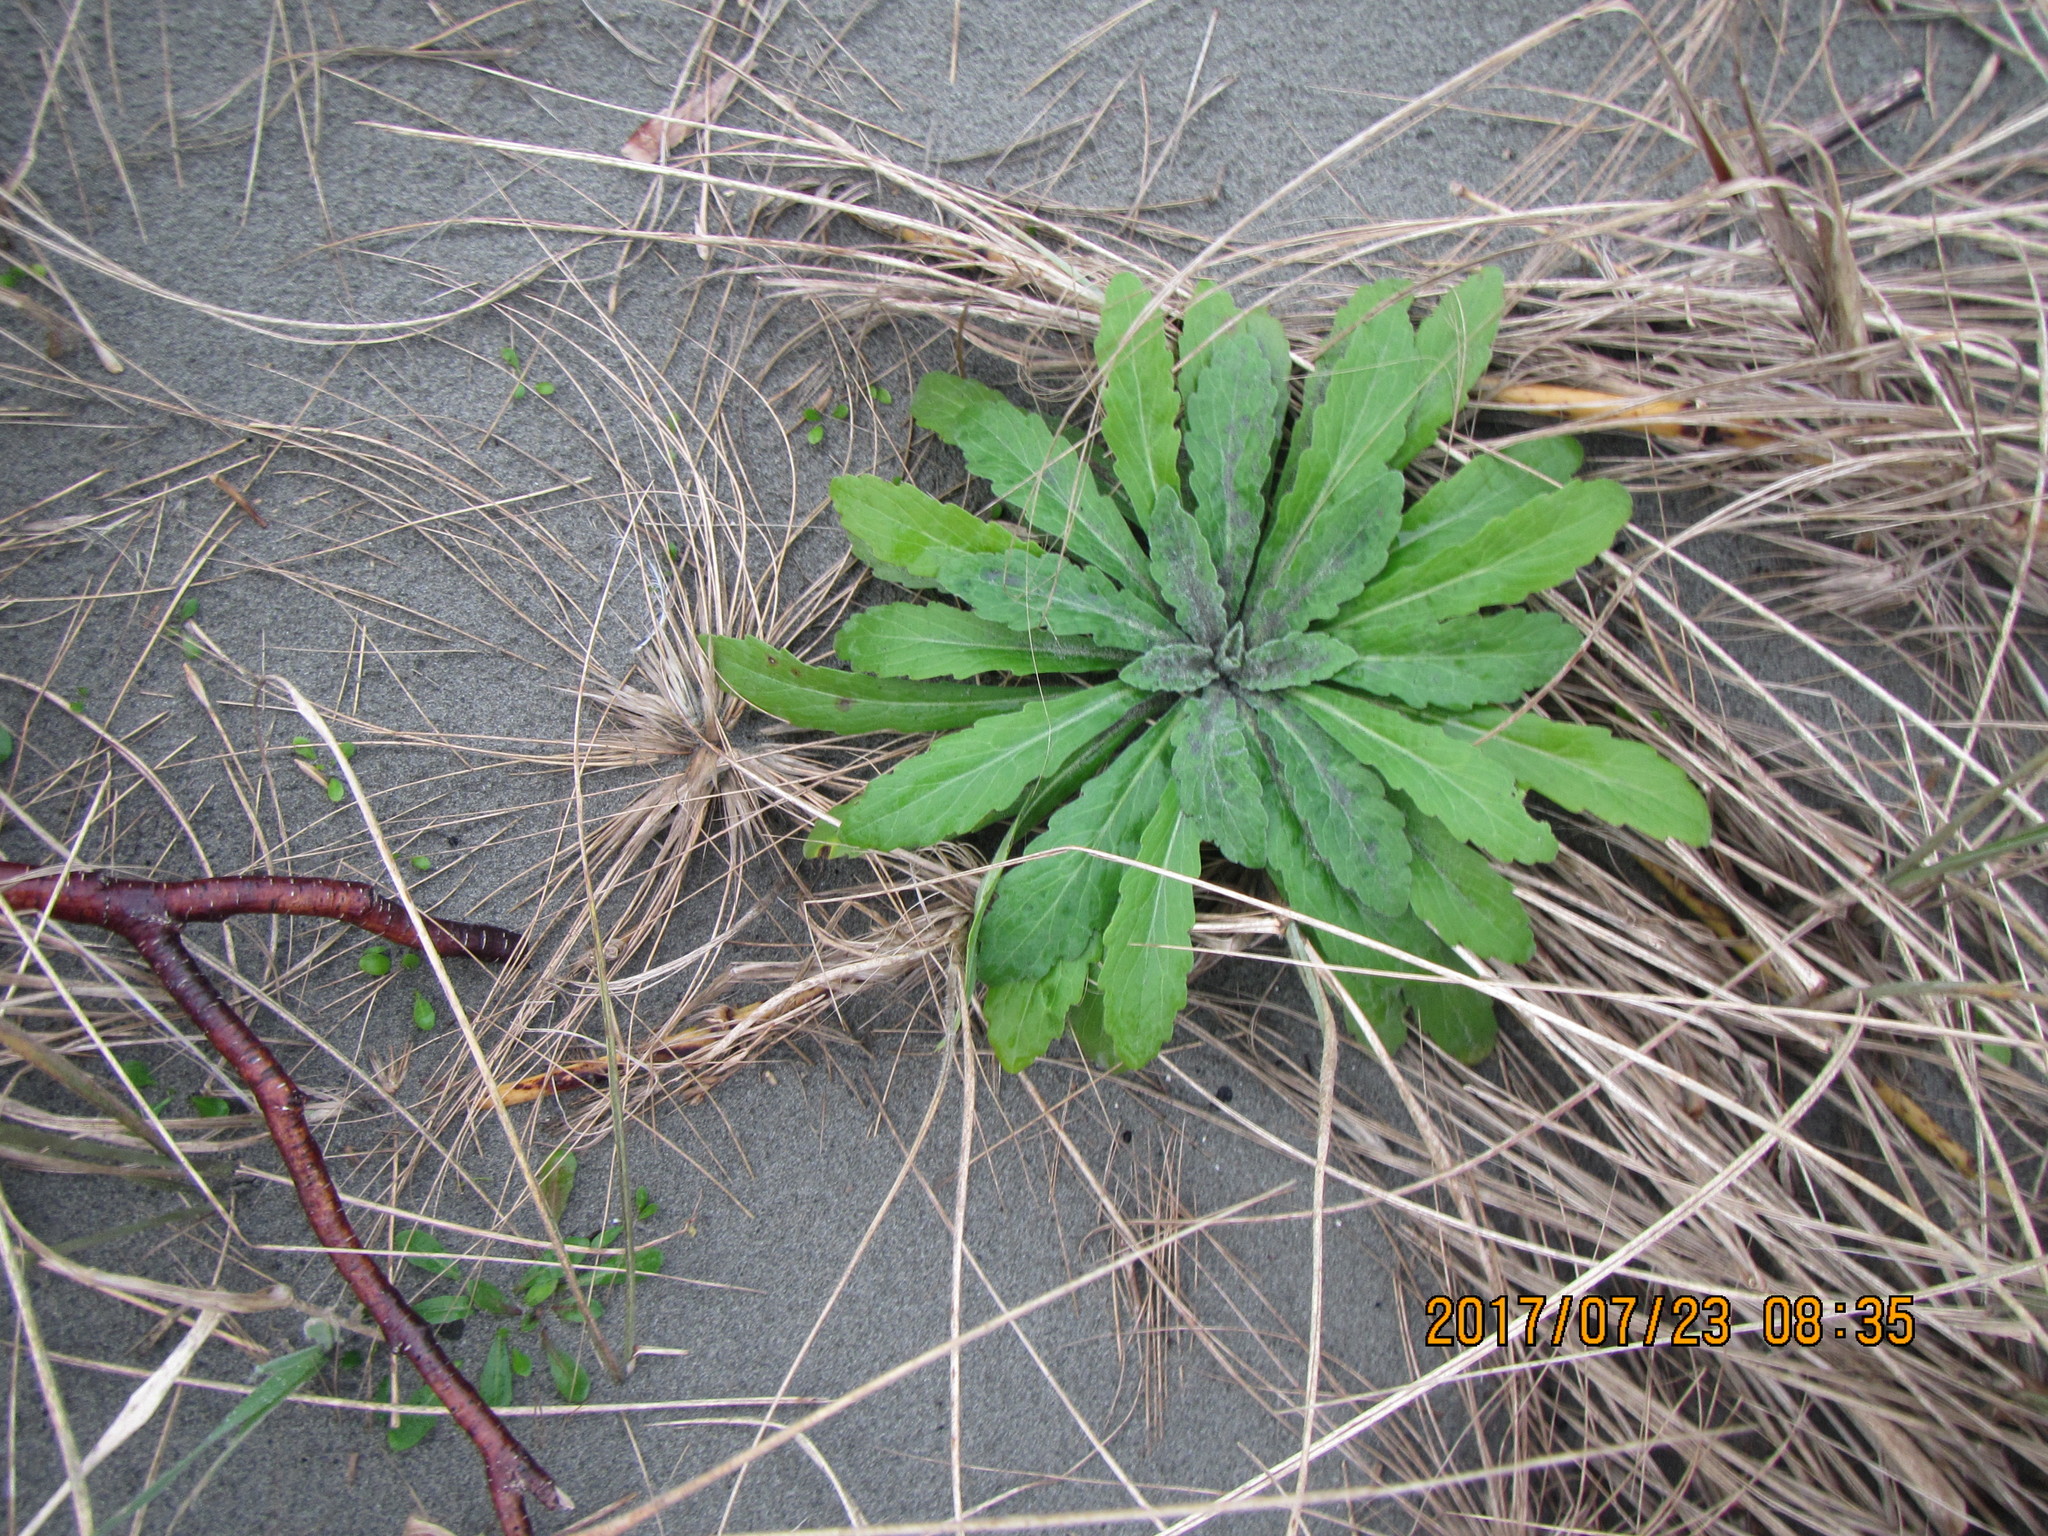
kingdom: Plantae
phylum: Tracheophyta
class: Magnoliopsida
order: Asterales
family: Asteraceae
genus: Erigeron
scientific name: Erigeron sumatrensis
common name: Daisy
